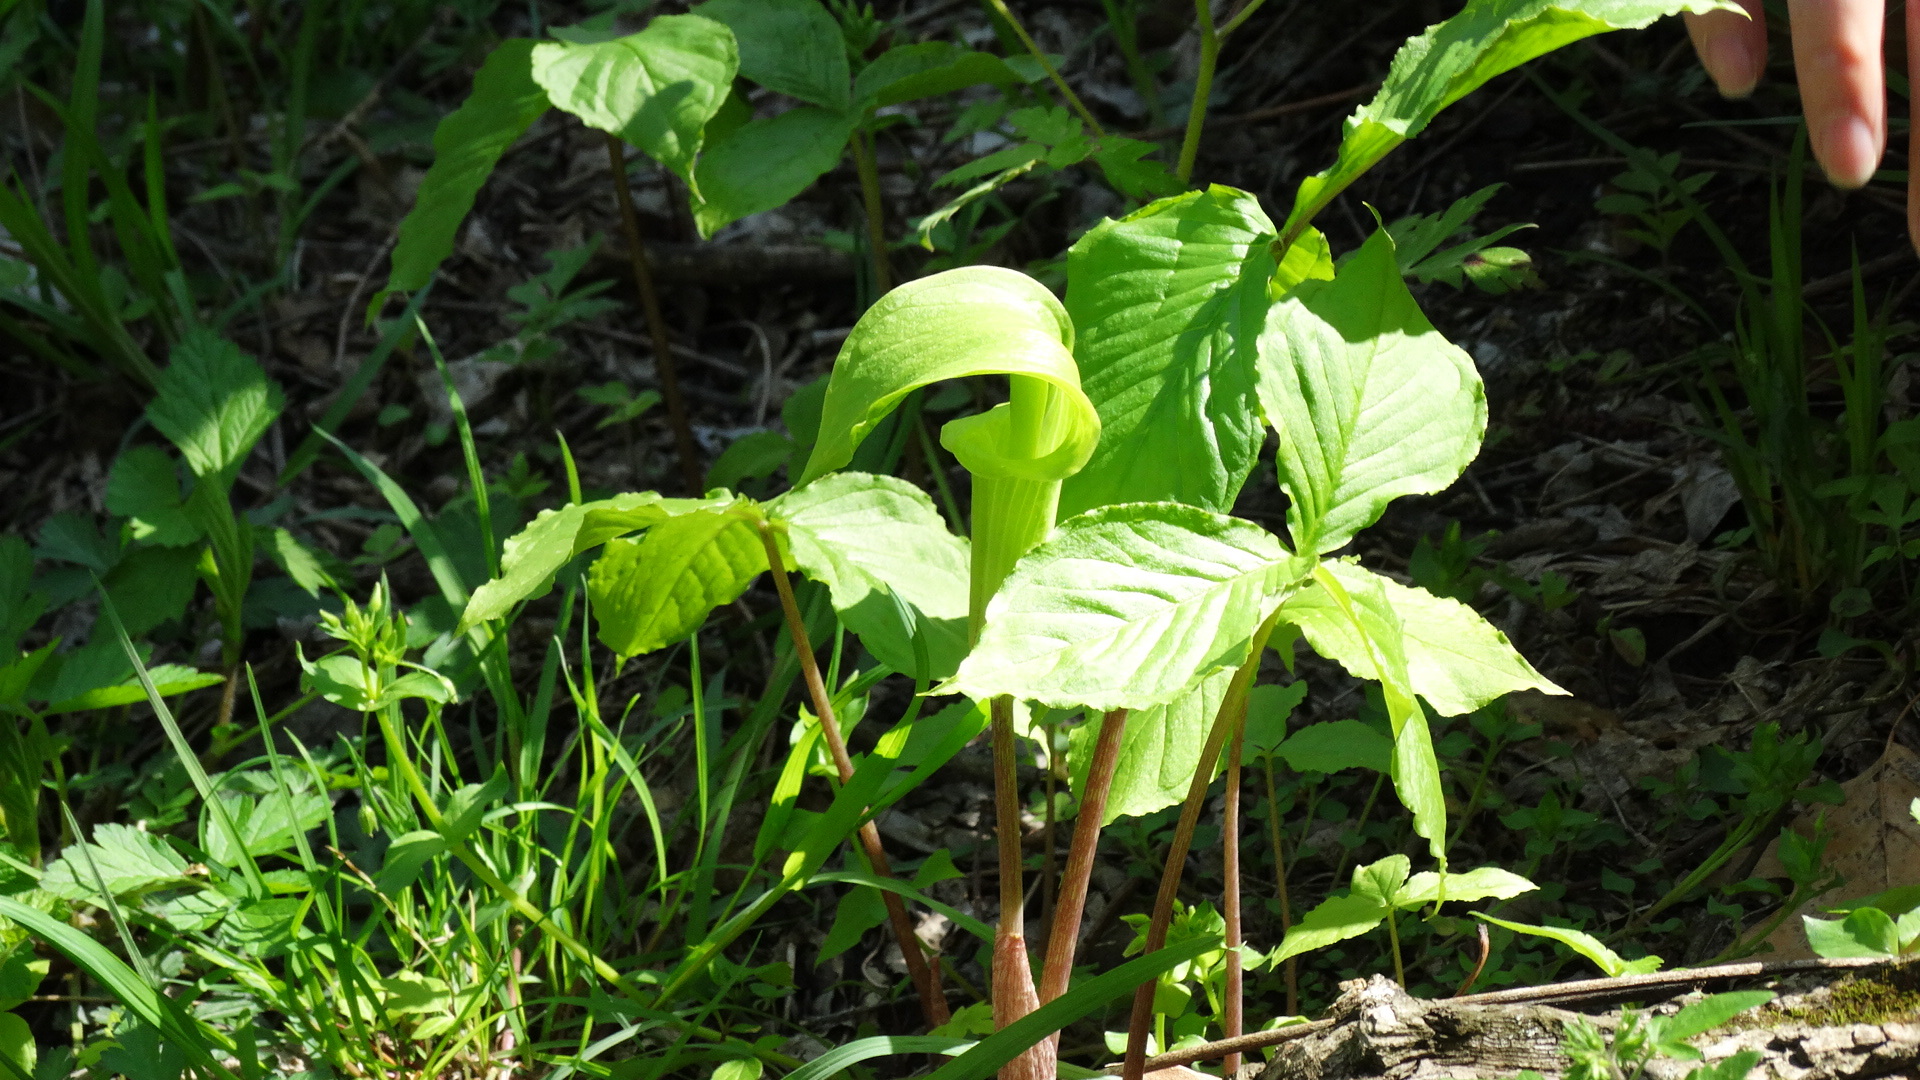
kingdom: Plantae
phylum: Tracheophyta
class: Liliopsida
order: Alismatales
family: Araceae
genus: Arisaema
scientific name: Arisaema triphyllum
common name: Jack-in-the-pulpit
